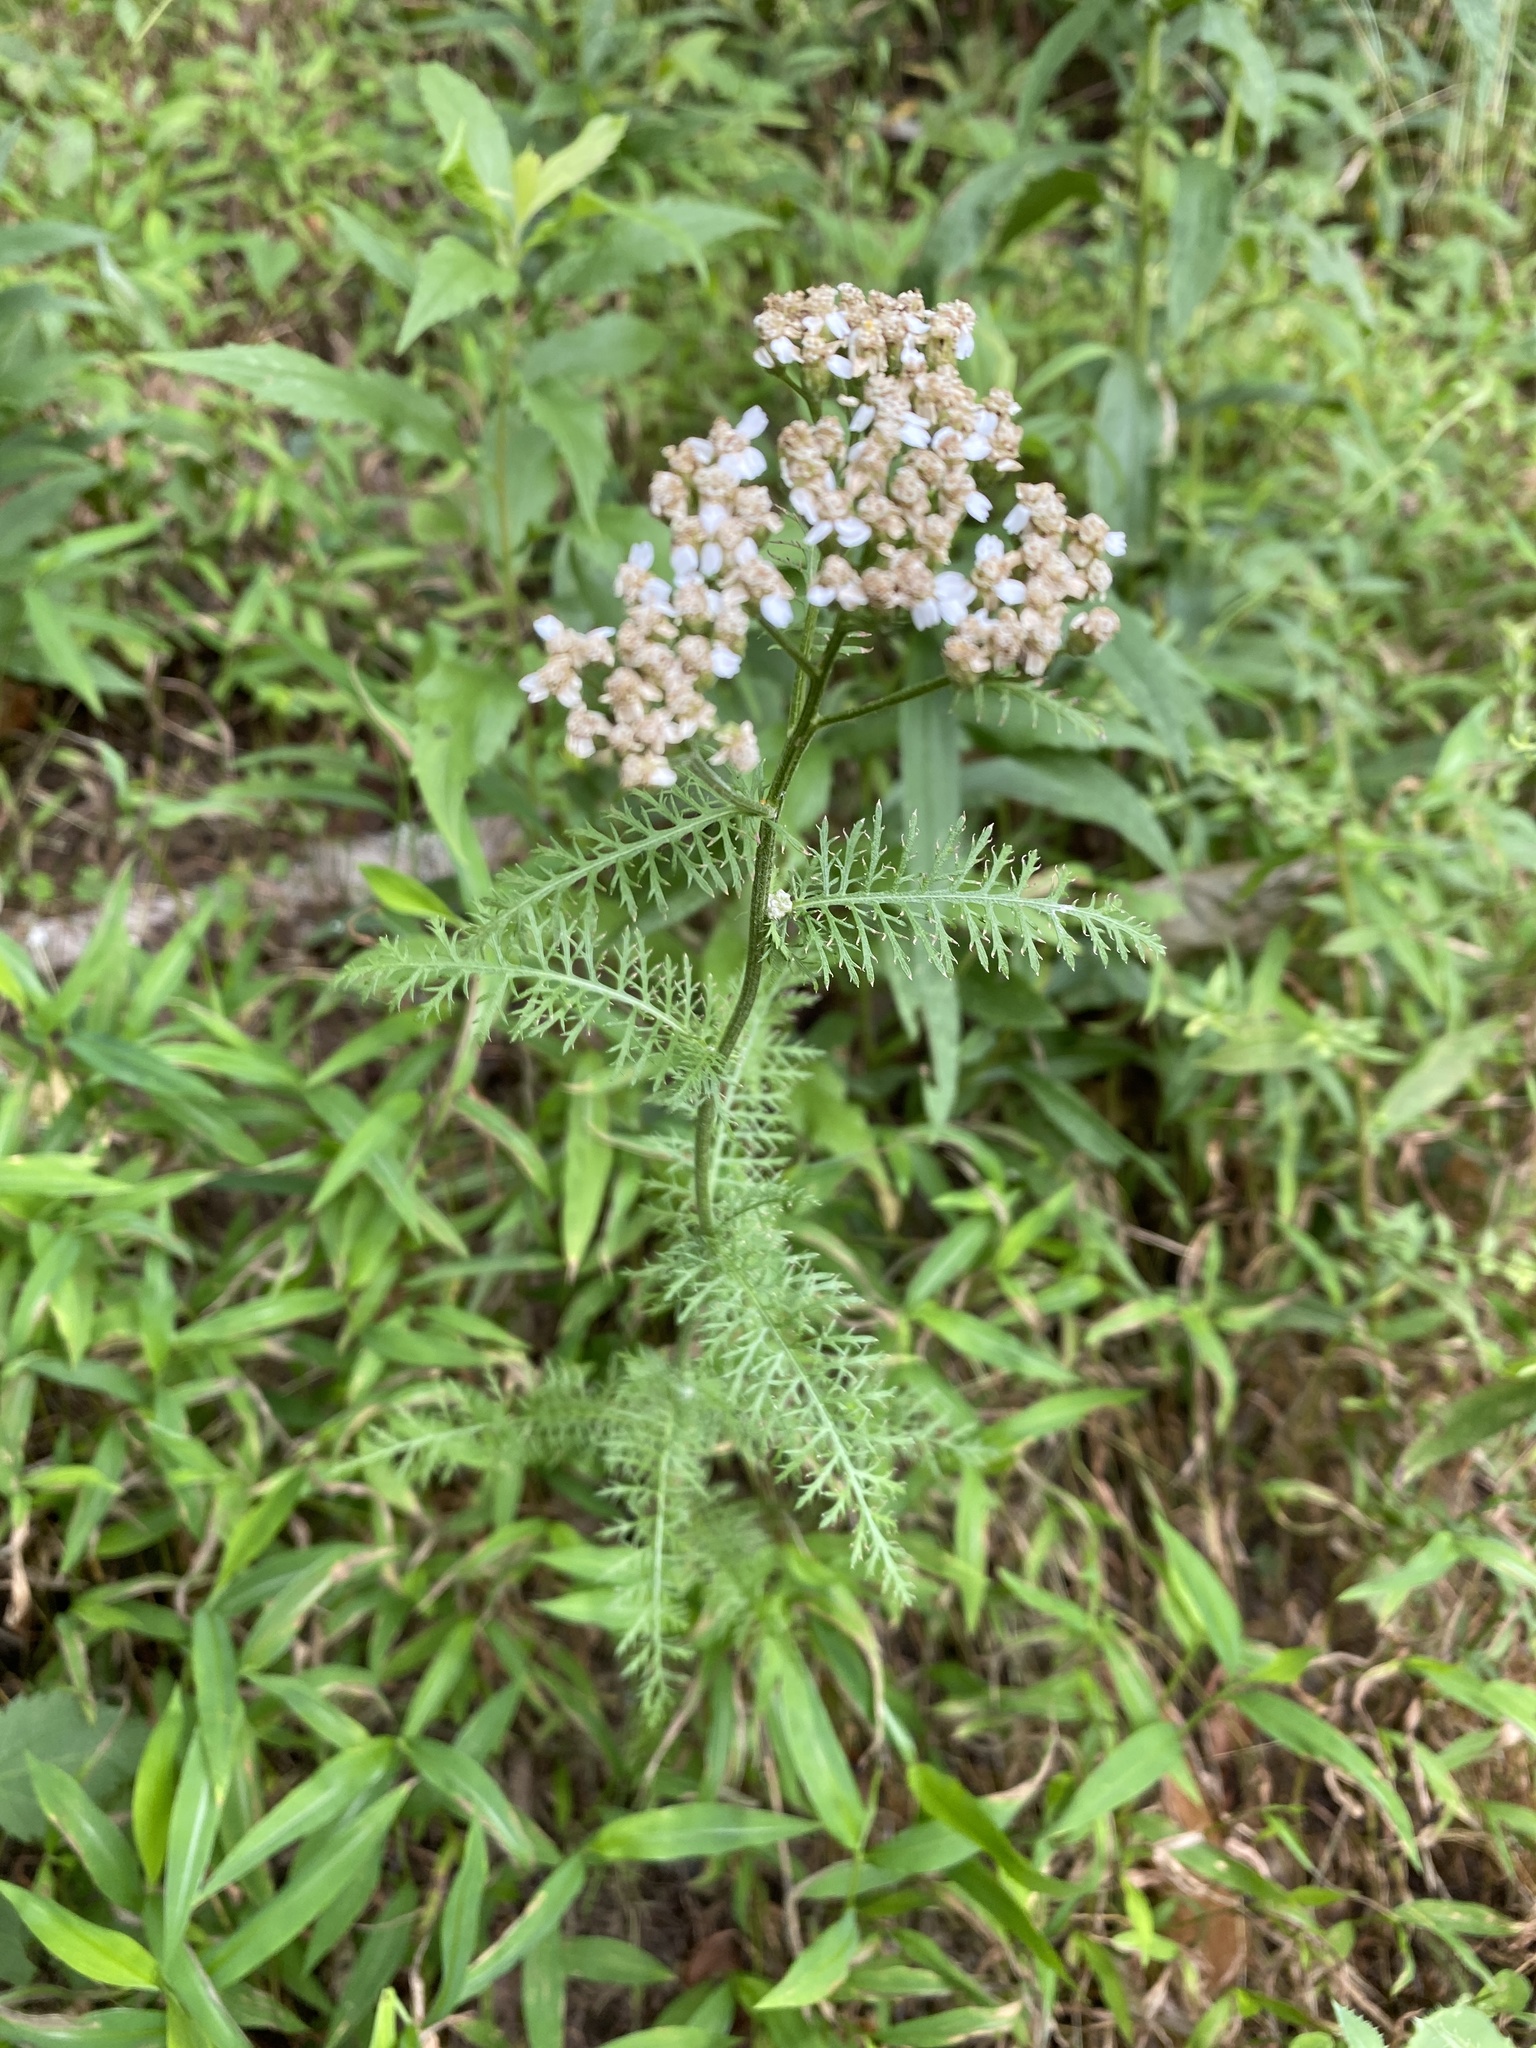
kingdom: Plantae
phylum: Tracheophyta
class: Magnoliopsida
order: Asterales
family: Asteraceae
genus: Achillea
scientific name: Achillea millefolium
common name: Yarrow
